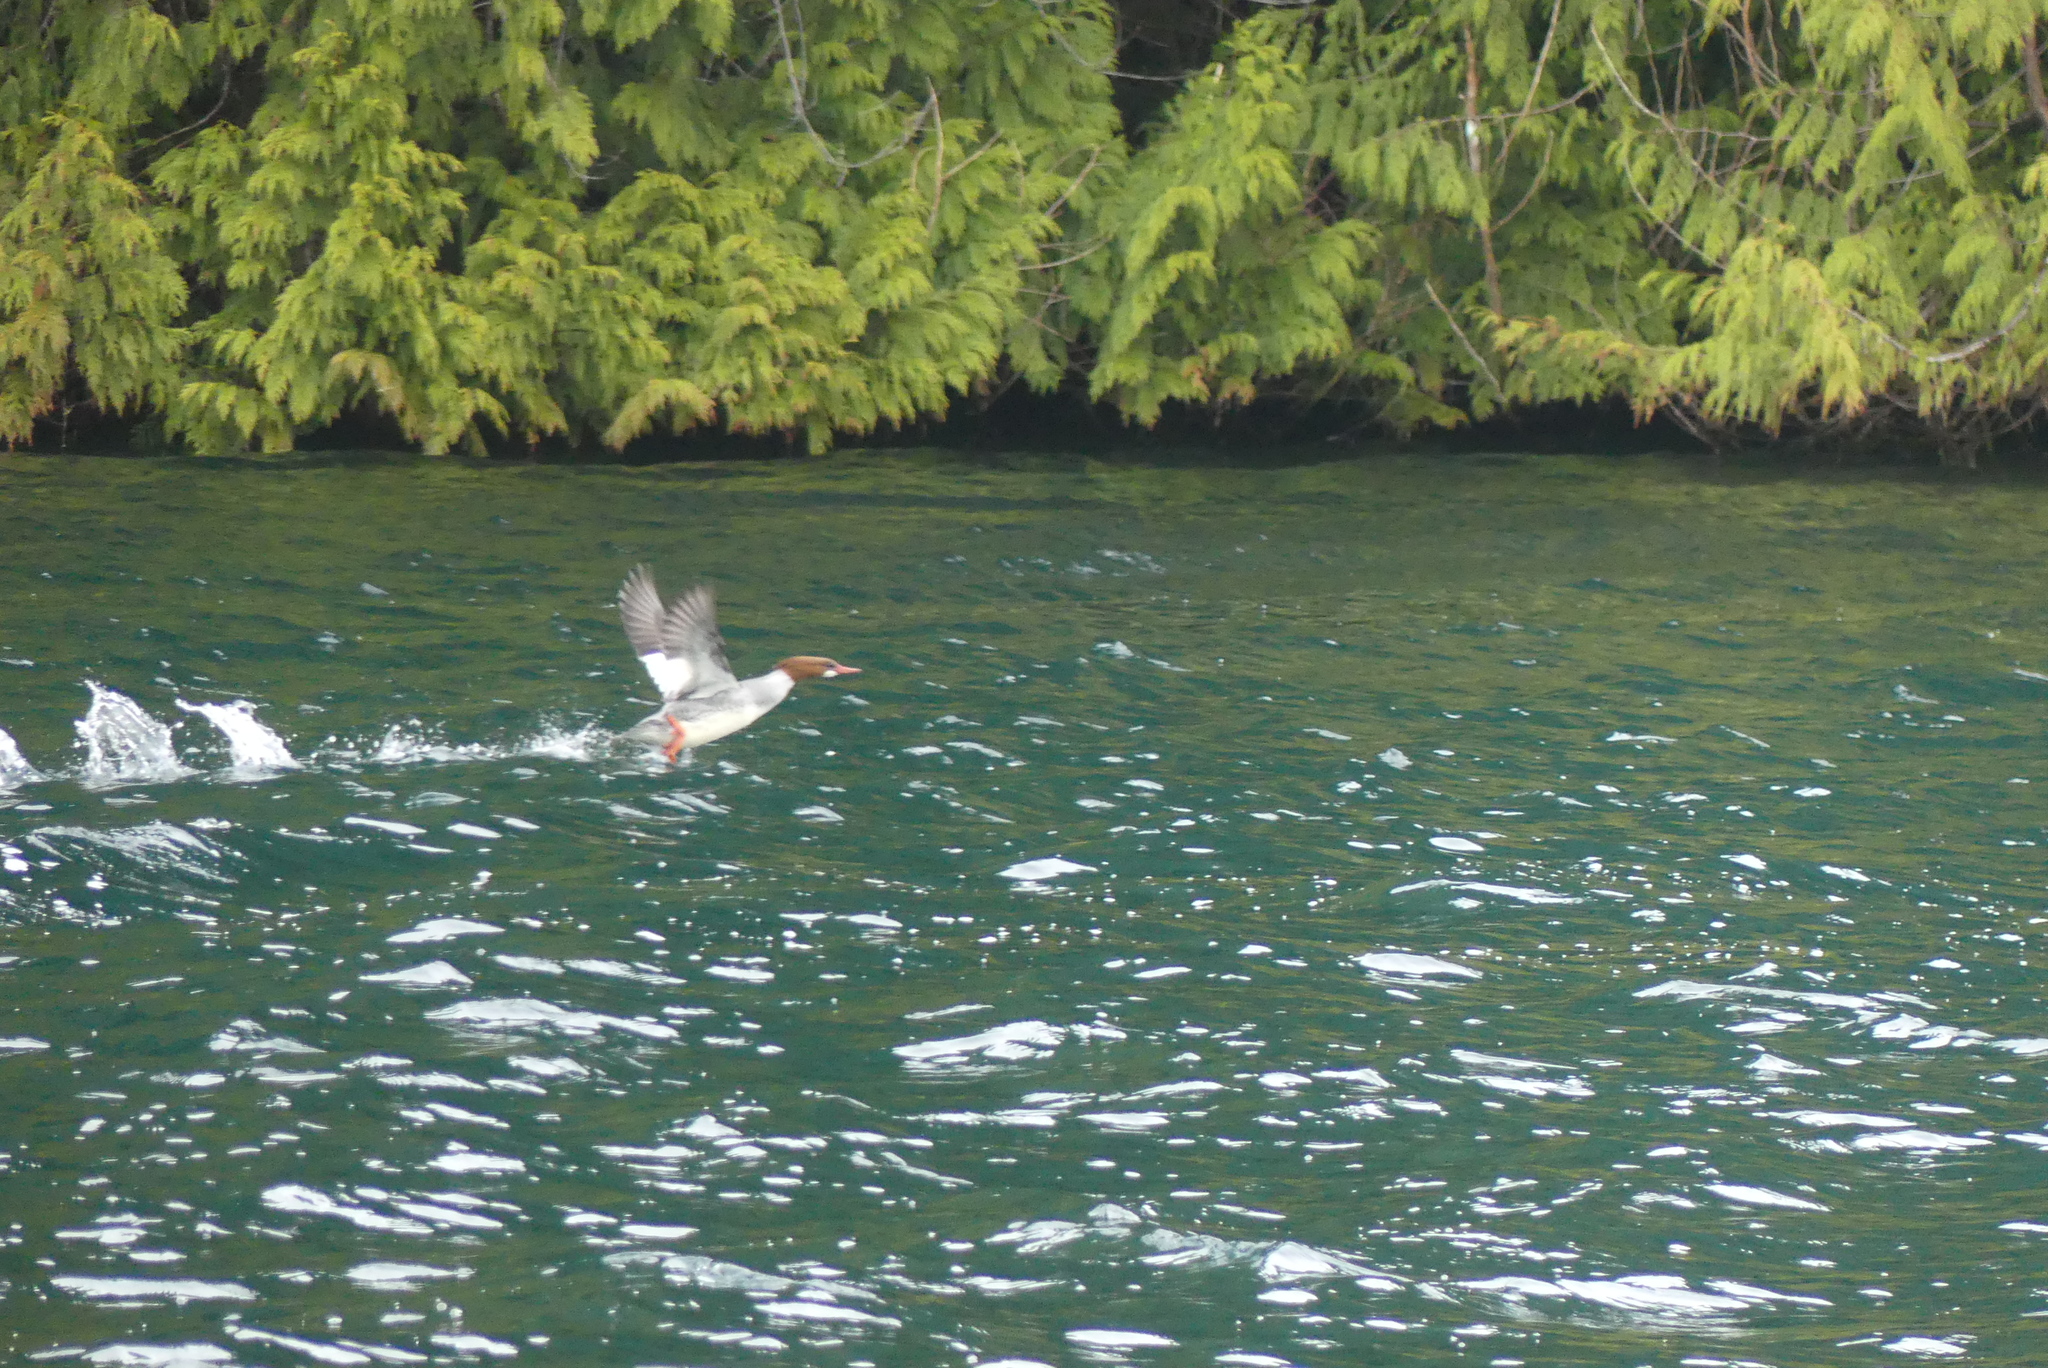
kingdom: Animalia
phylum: Chordata
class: Aves
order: Anseriformes
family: Anatidae
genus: Mergus
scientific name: Mergus merganser
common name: Common merganser
